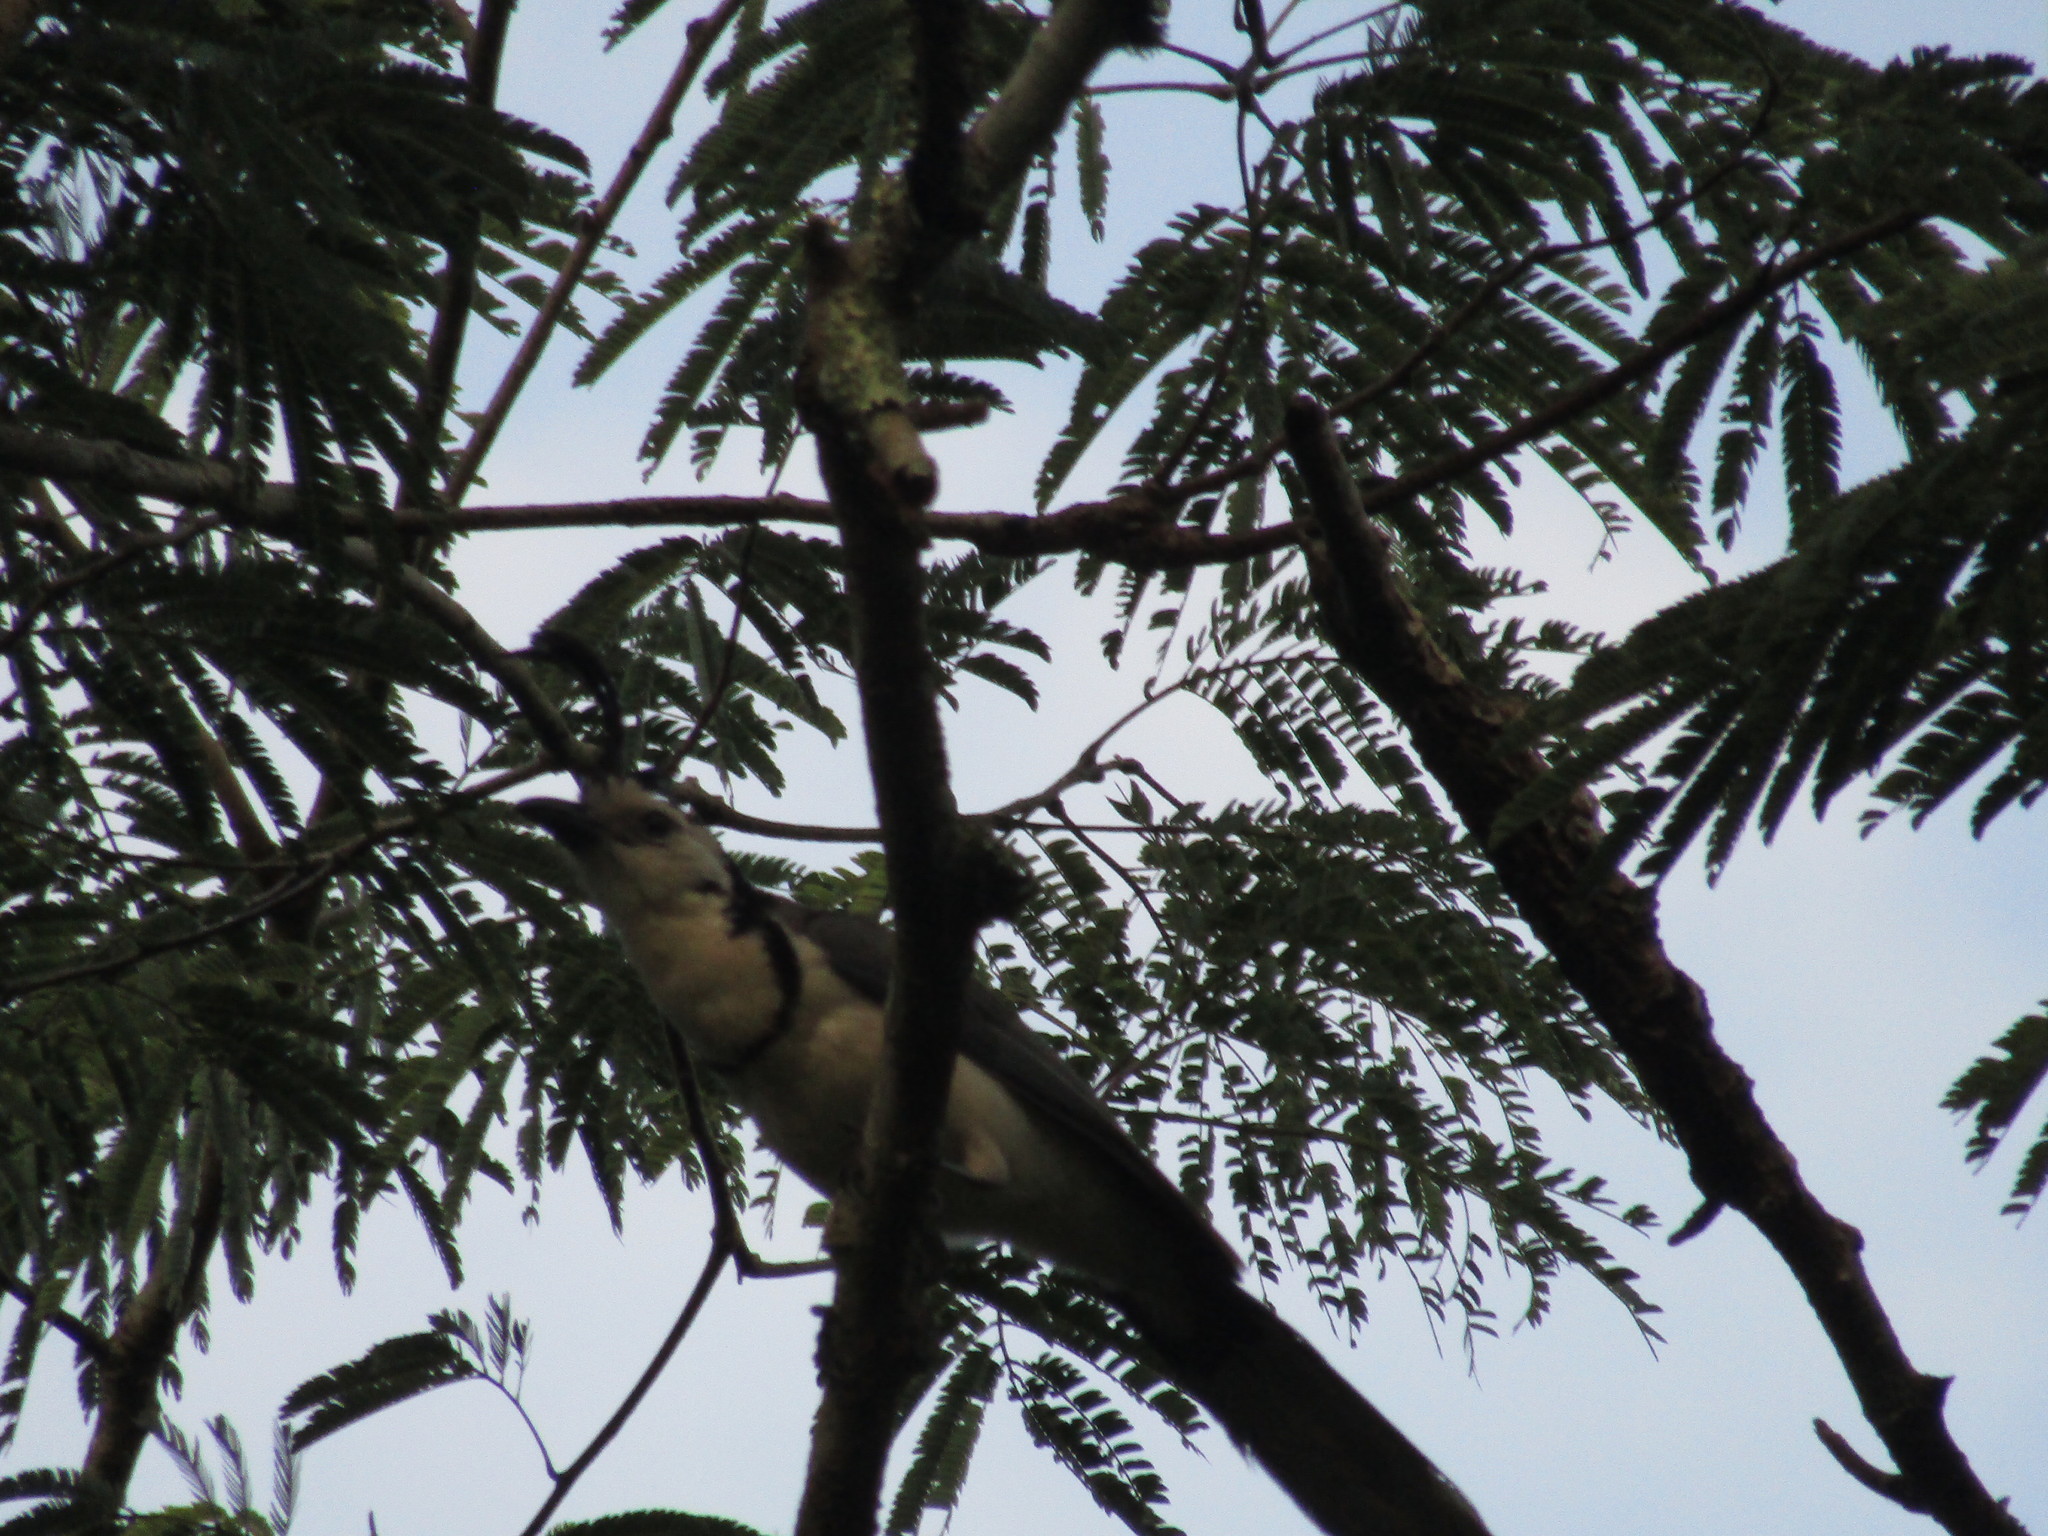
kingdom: Animalia
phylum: Chordata
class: Aves
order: Passeriformes
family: Corvidae
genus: Calocitta
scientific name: Calocitta formosa
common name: White-throated magpie-jay
